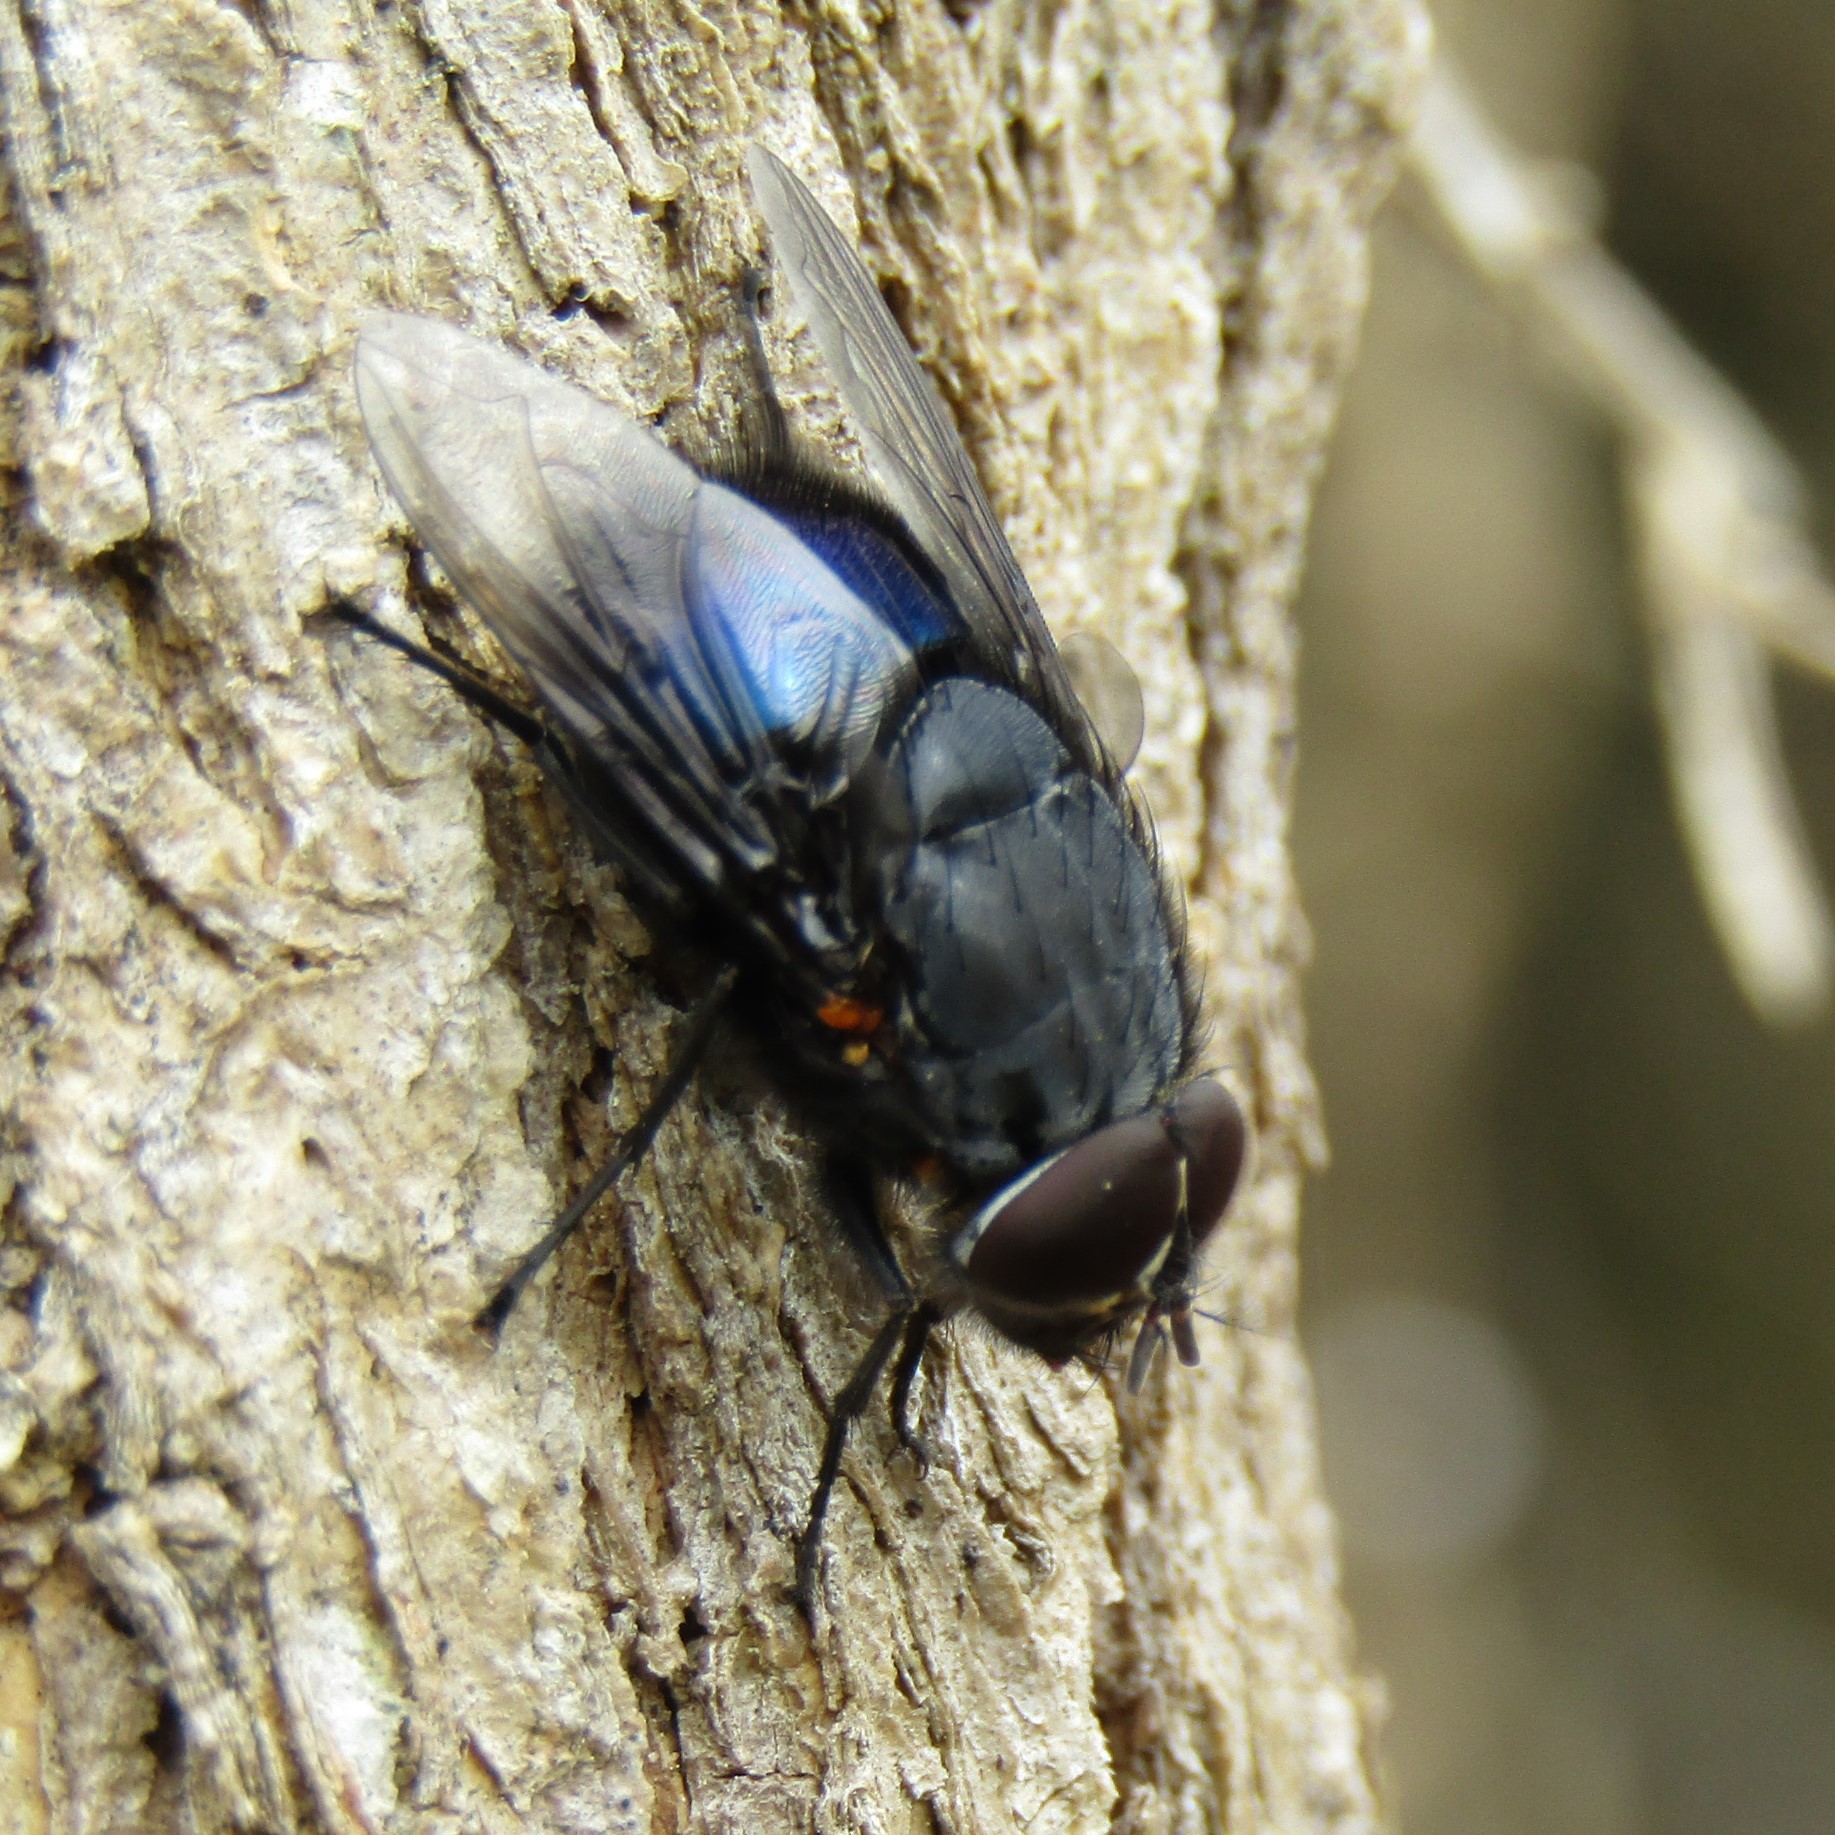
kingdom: Animalia
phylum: Arthropoda
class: Insecta
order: Diptera
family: Calliphoridae
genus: Calliphora
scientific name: Calliphora quadrimaculata
